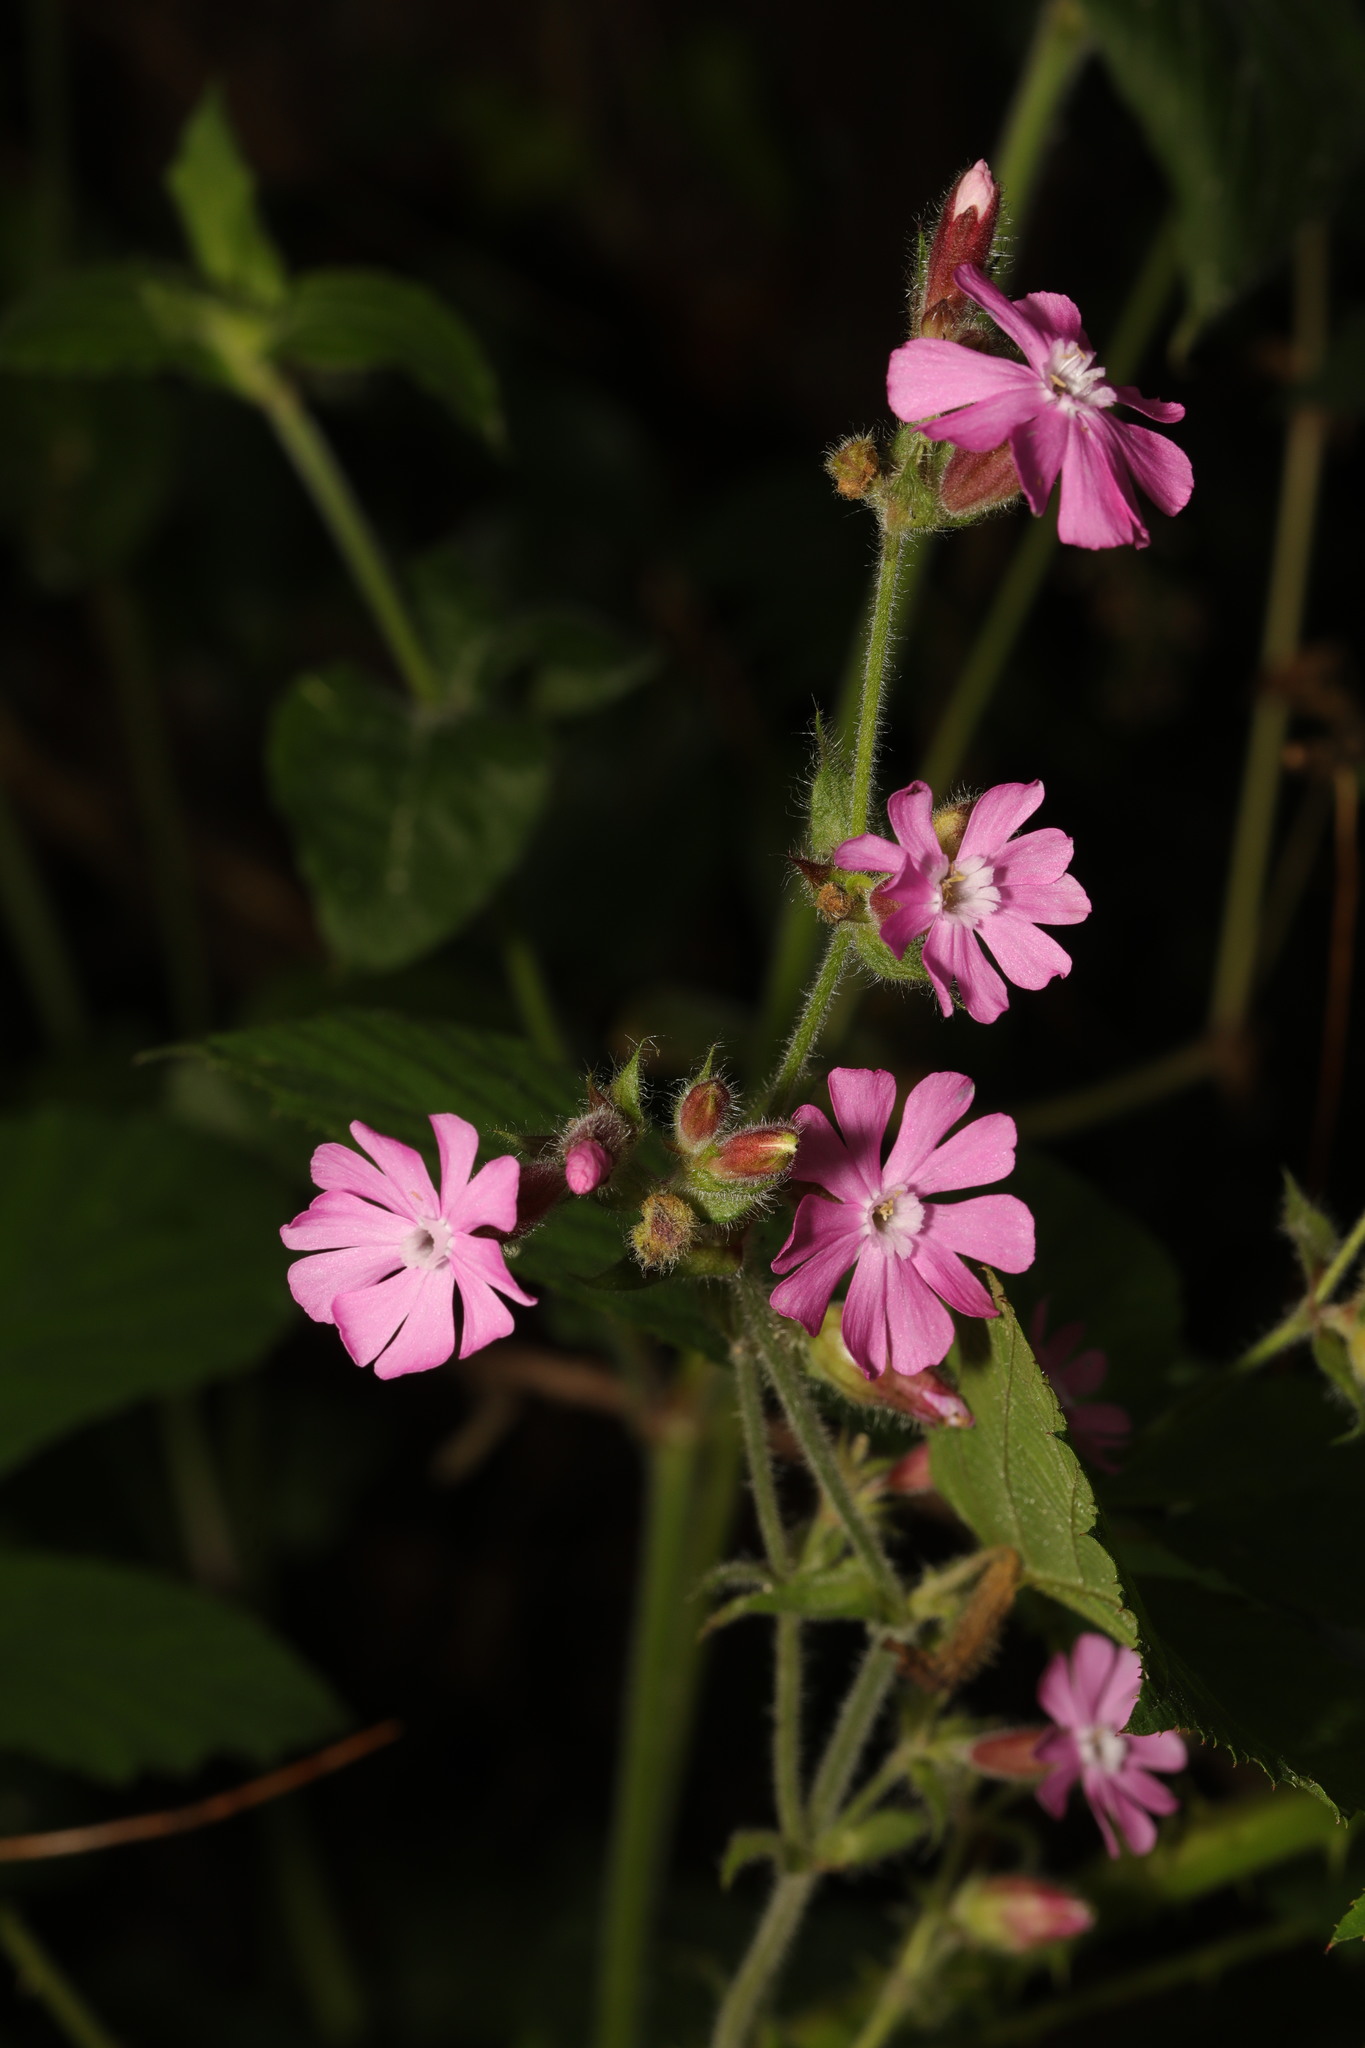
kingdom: Plantae
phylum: Tracheophyta
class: Magnoliopsida
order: Caryophyllales
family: Caryophyllaceae
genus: Silene
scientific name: Silene dioica
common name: Red campion
